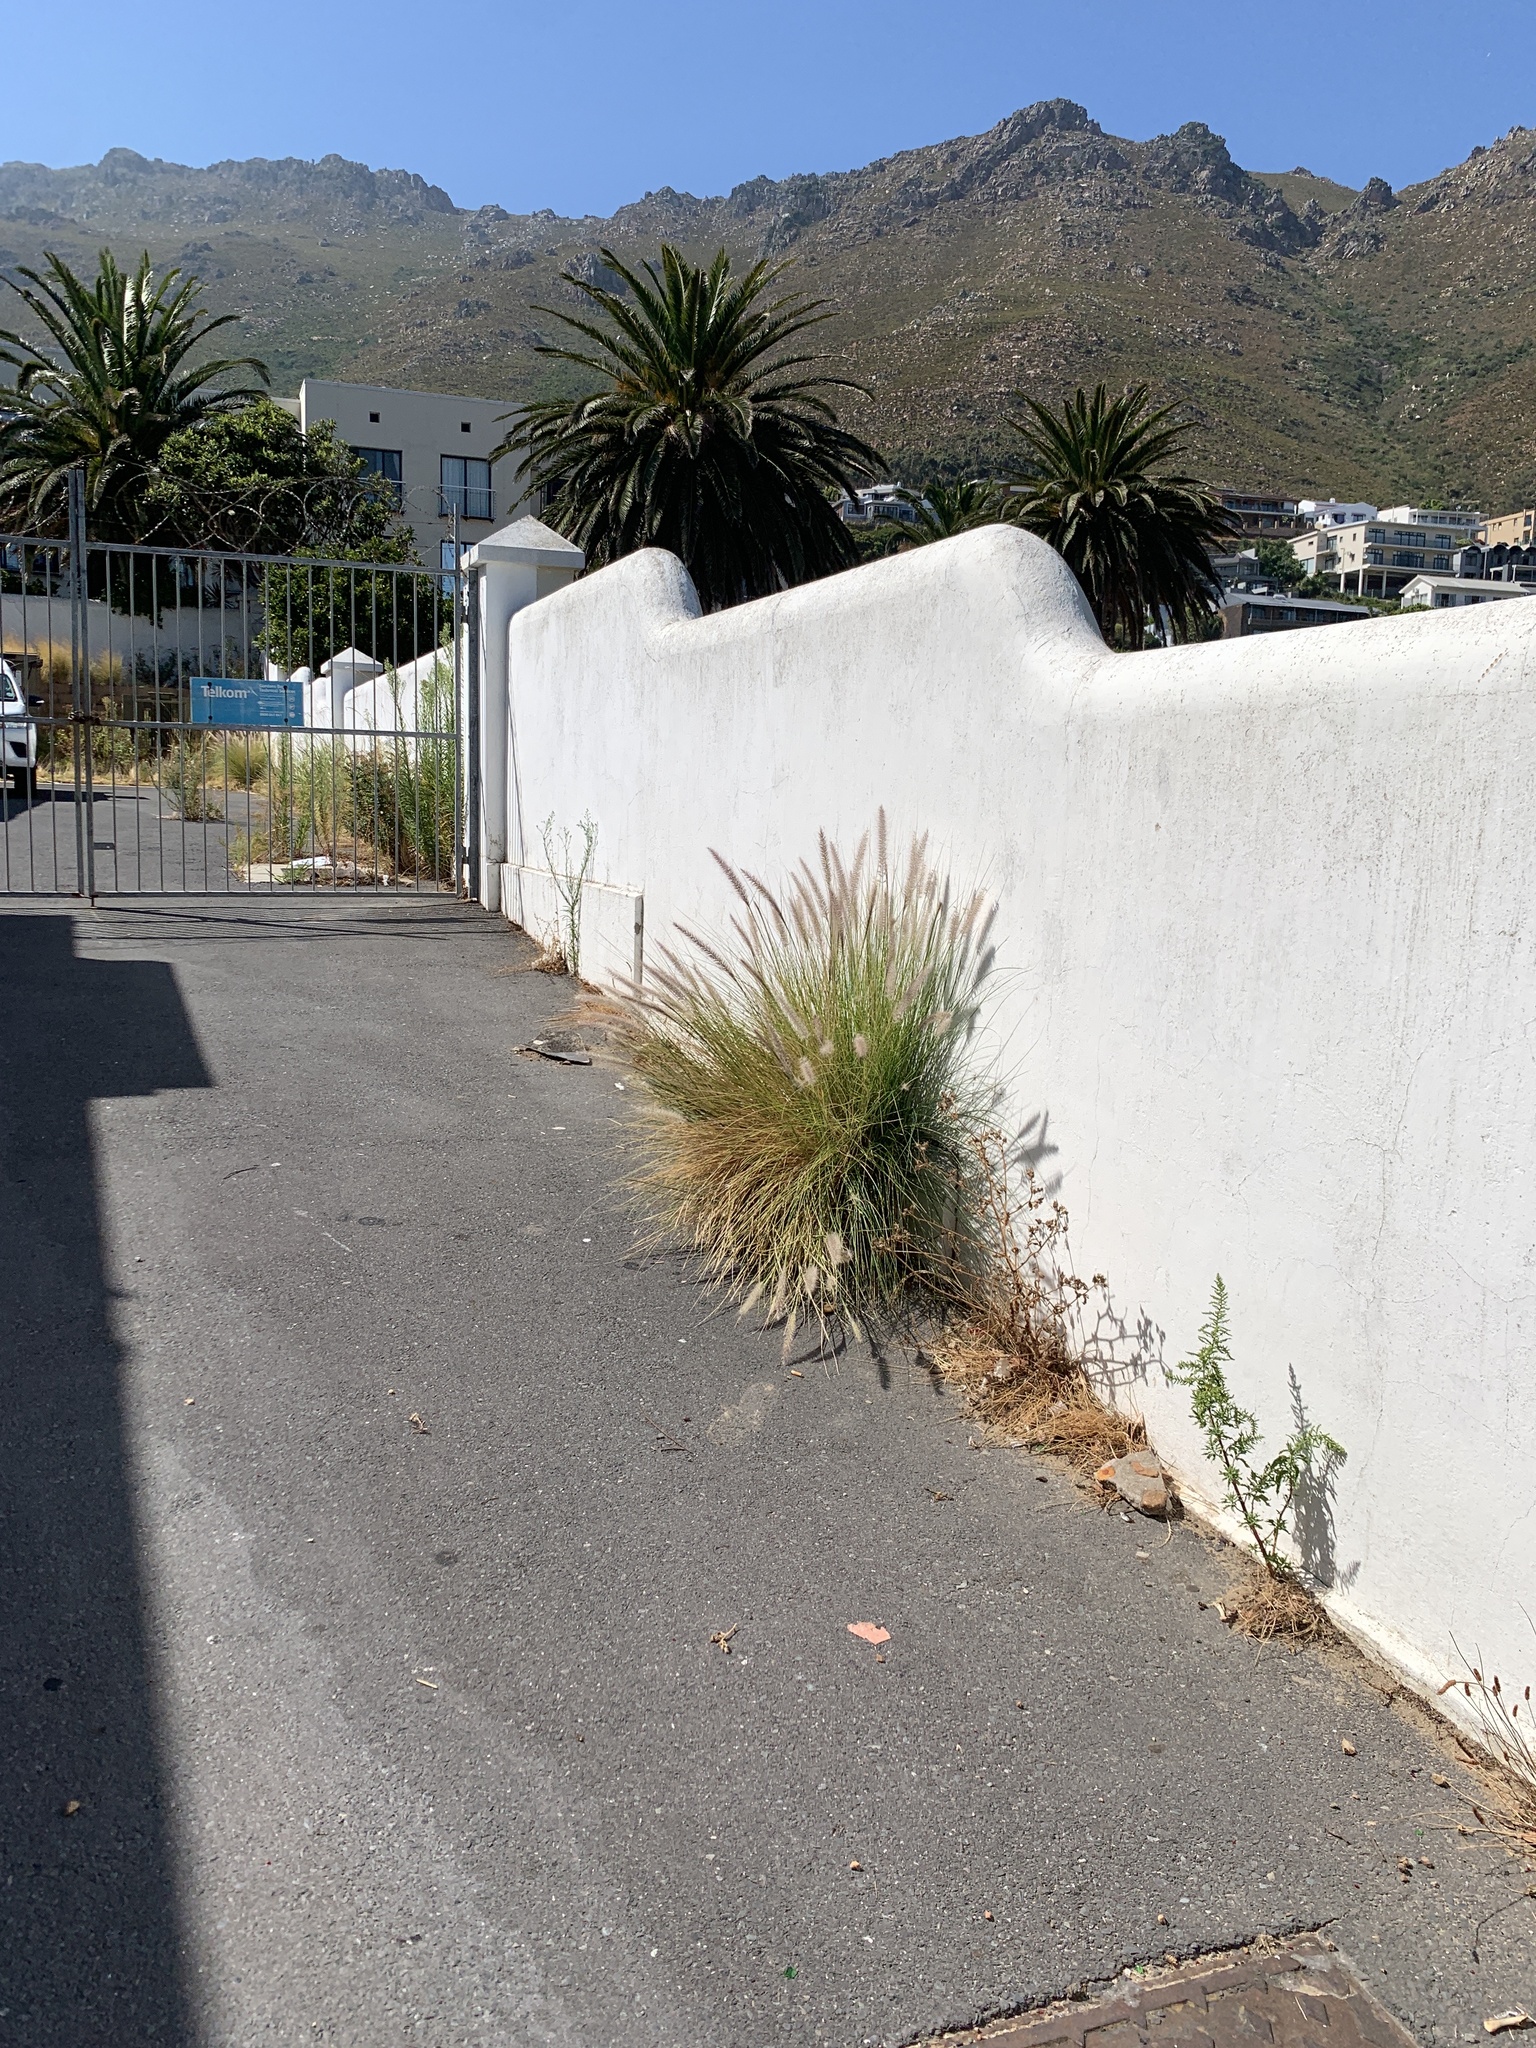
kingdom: Plantae
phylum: Tracheophyta
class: Liliopsida
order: Poales
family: Poaceae
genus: Cenchrus
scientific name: Cenchrus setaceus
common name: Crimson fountaingrass
